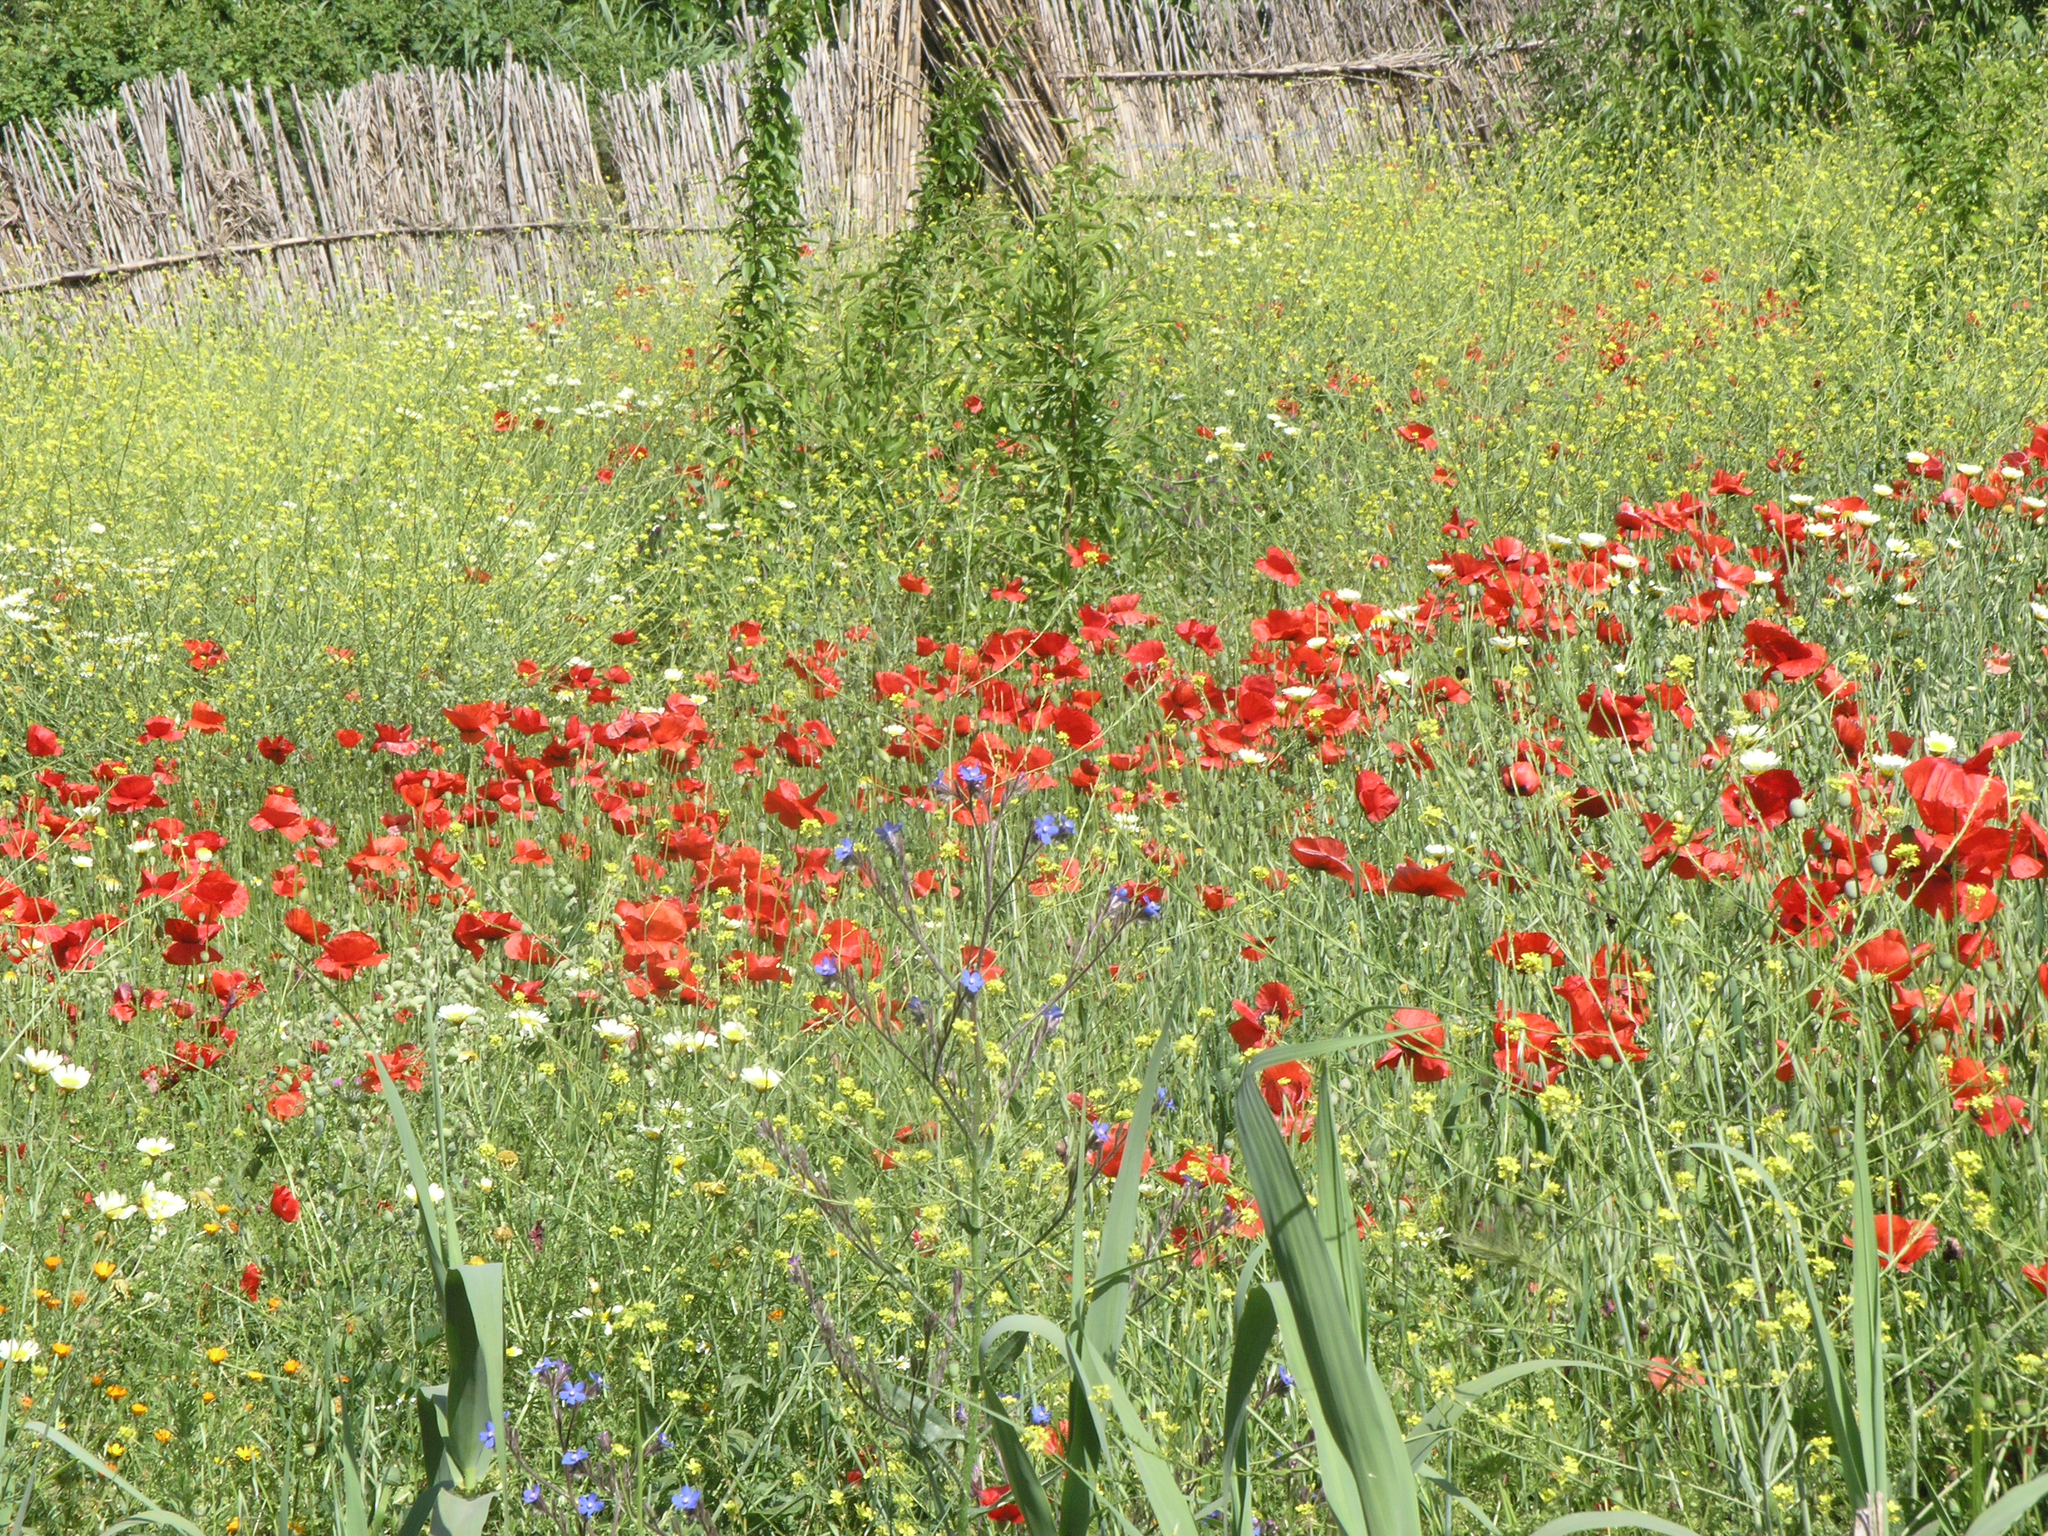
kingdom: Plantae
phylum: Tracheophyta
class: Magnoliopsida
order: Ranunculales
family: Papaveraceae
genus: Papaver
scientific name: Papaver rhoeas
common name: Corn poppy
